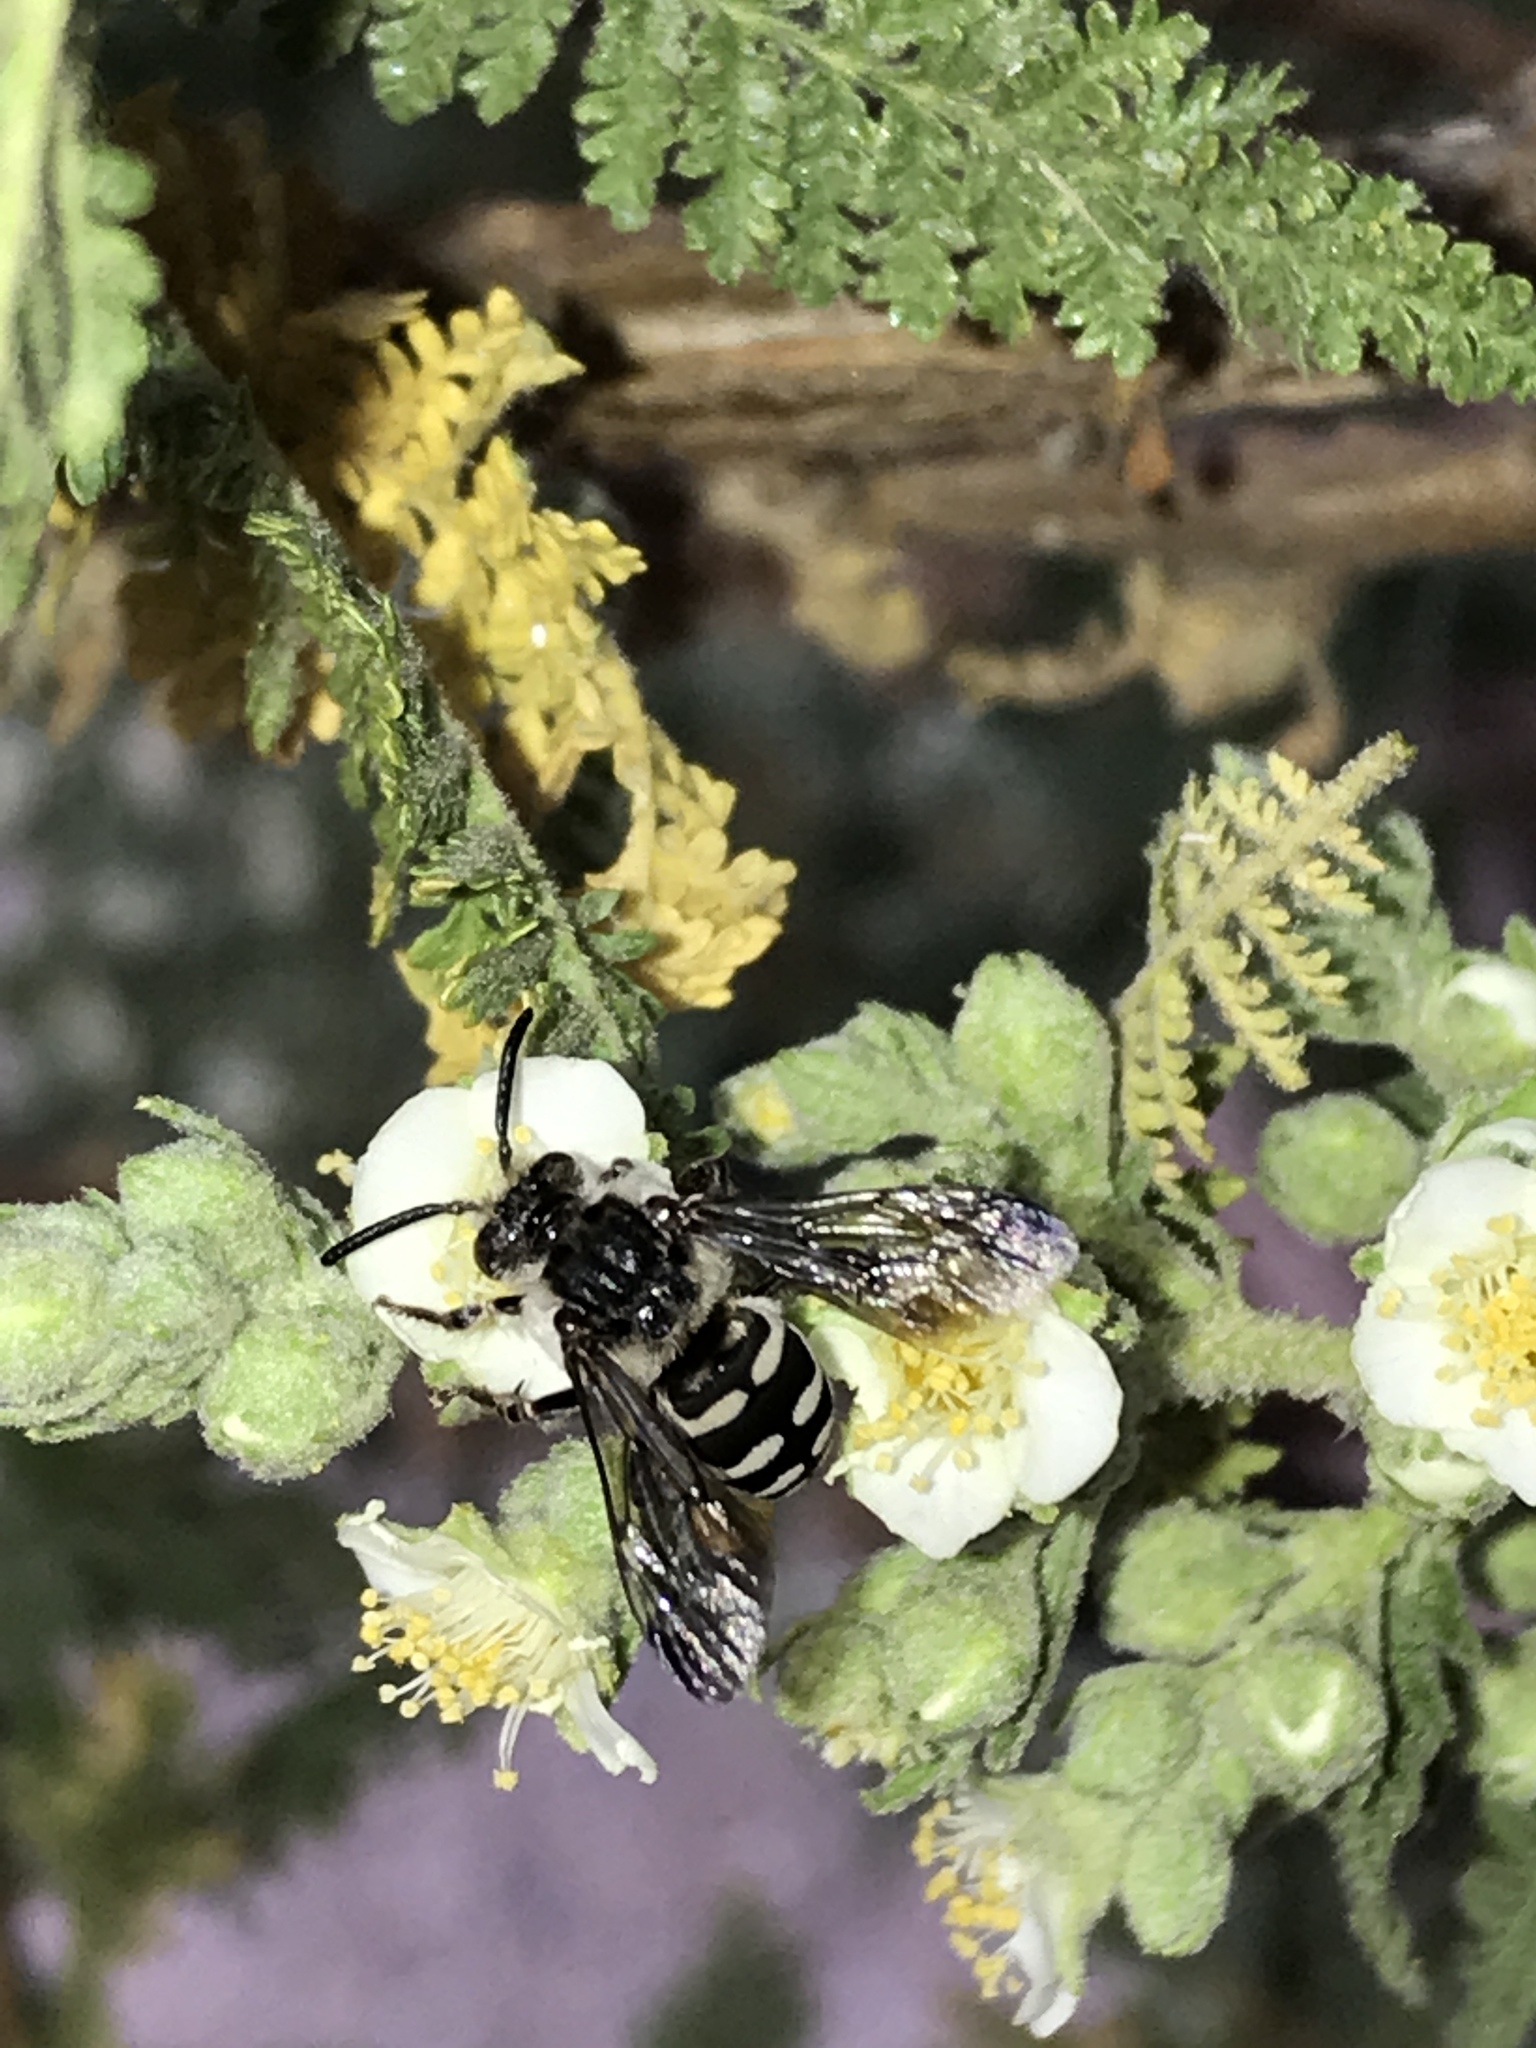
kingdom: Animalia
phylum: Arthropoda
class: Insecta
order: Hymenoptera
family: Apidae
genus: Brachymelecta
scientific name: Brachymelecta californica
